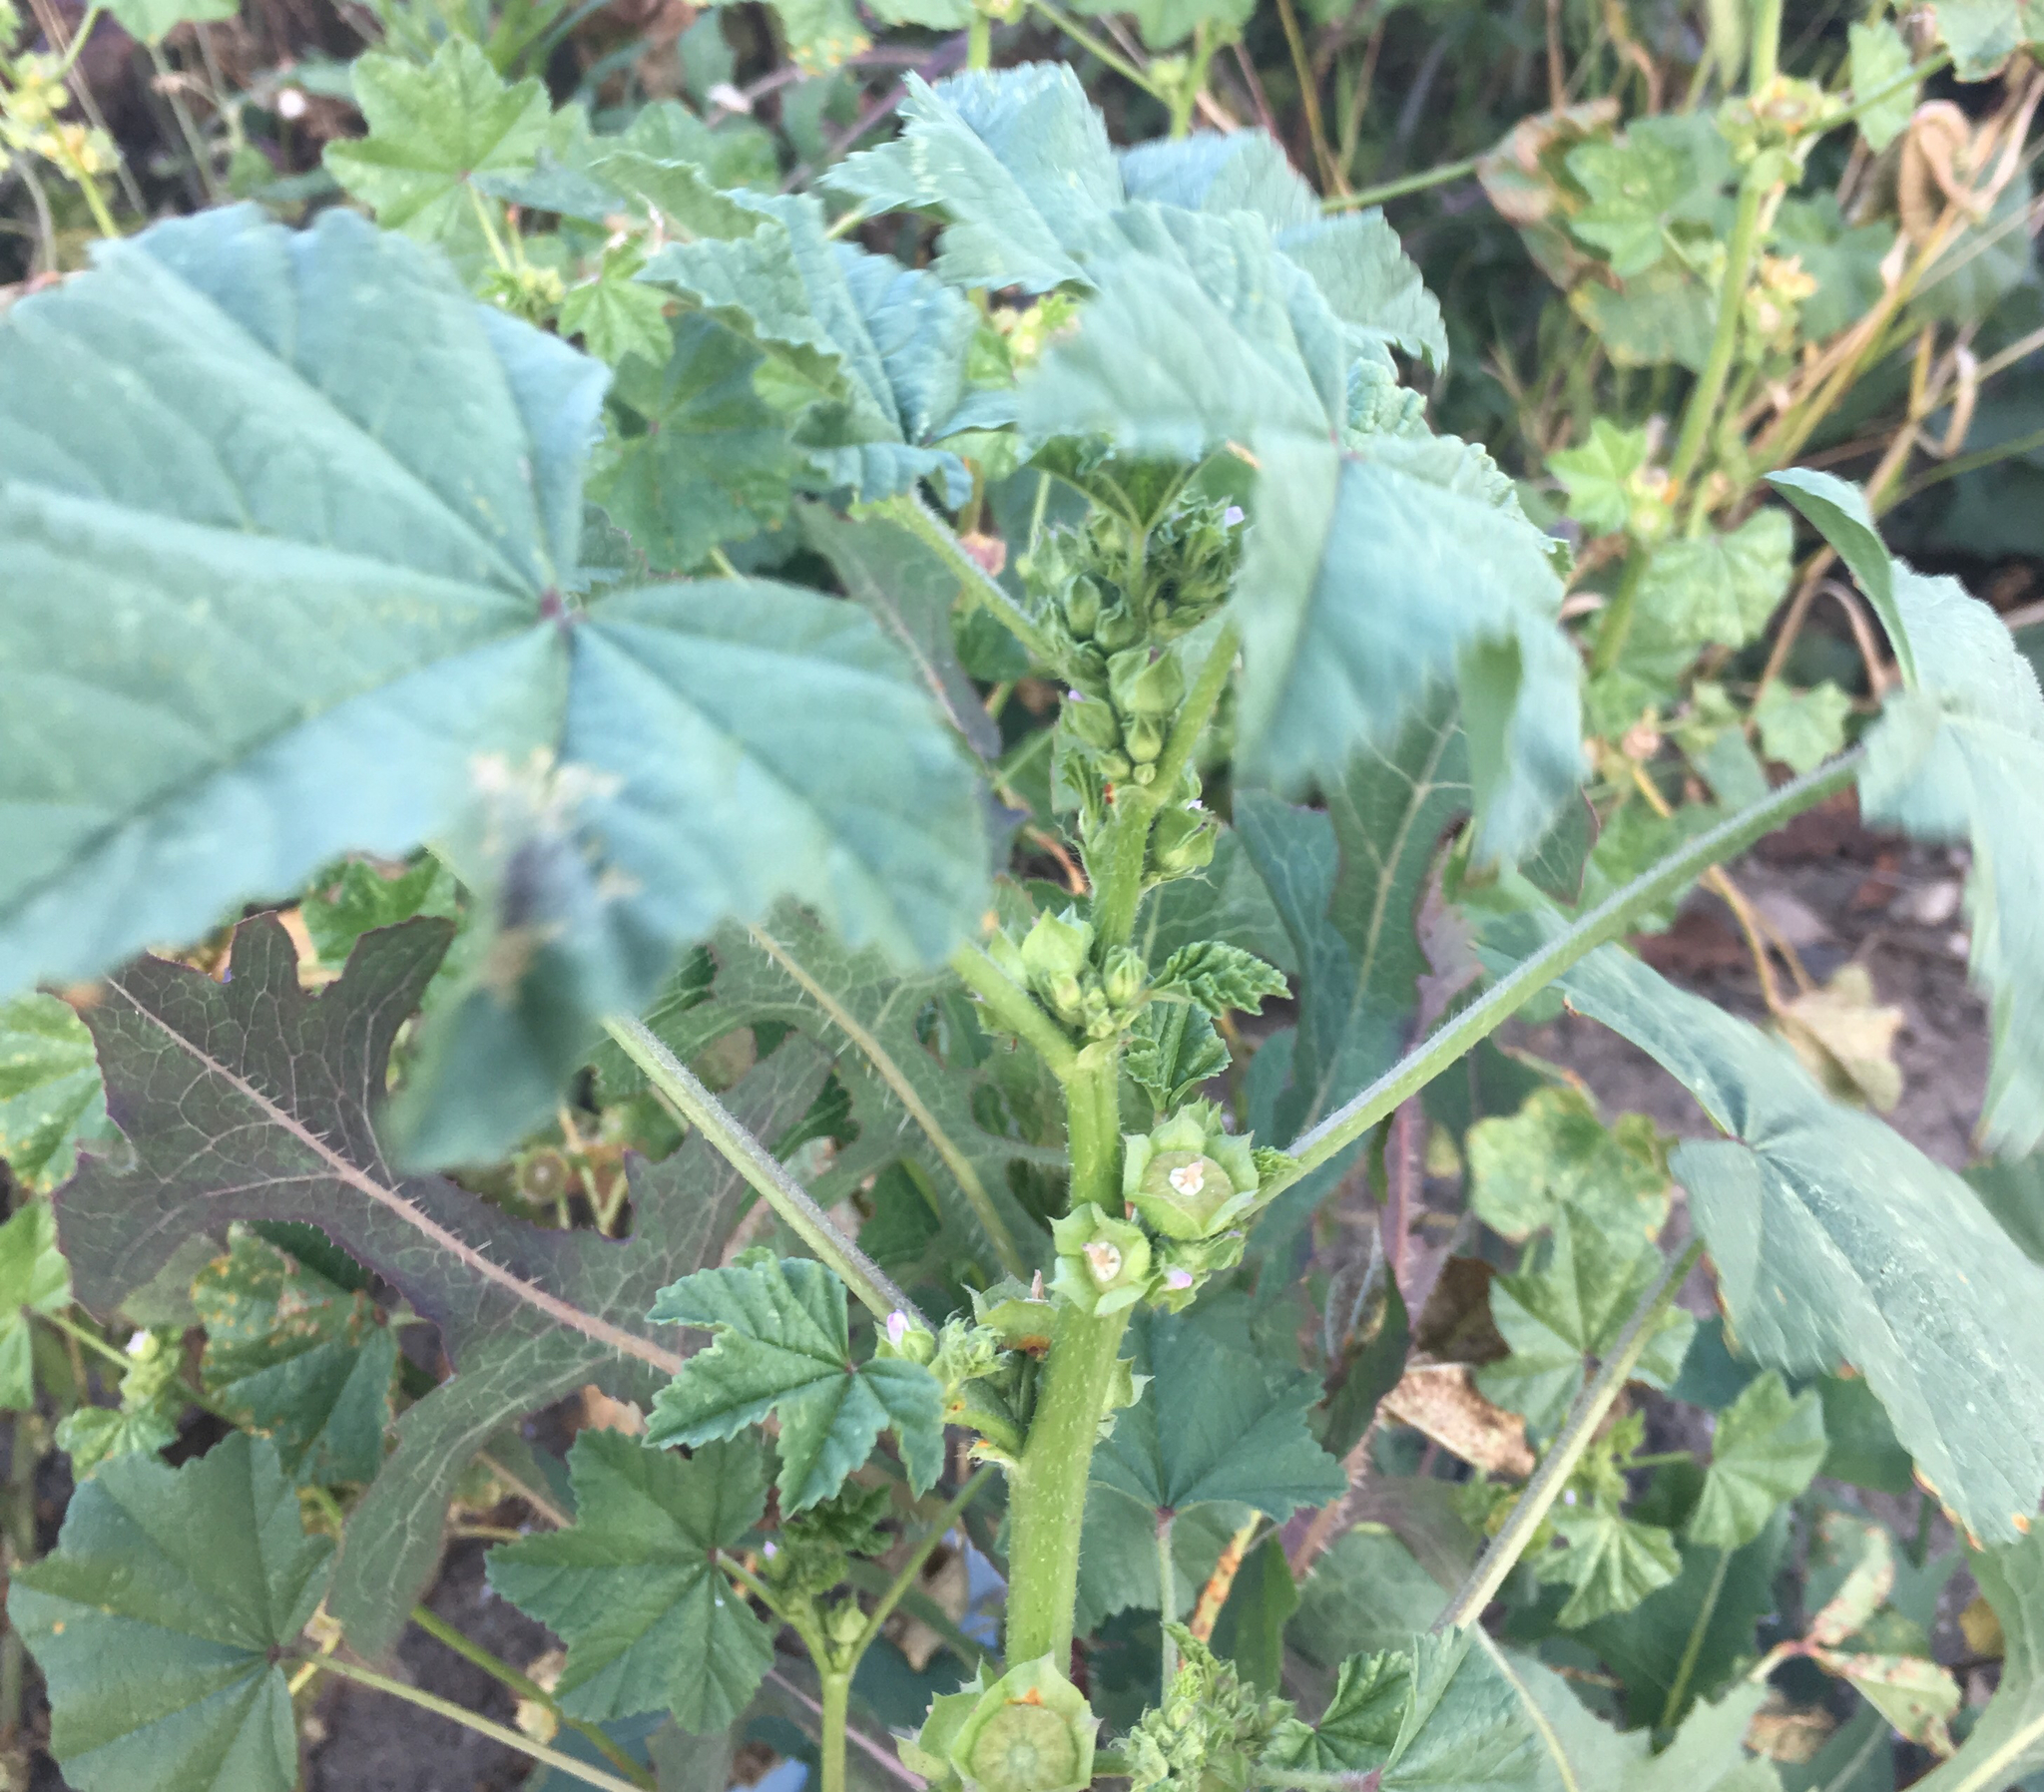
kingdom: Plantae
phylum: Tracheophyta
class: Magnoliopsida
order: Malvales
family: Malvaceae
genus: Malva
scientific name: Malva parviflora
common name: Least mallow
